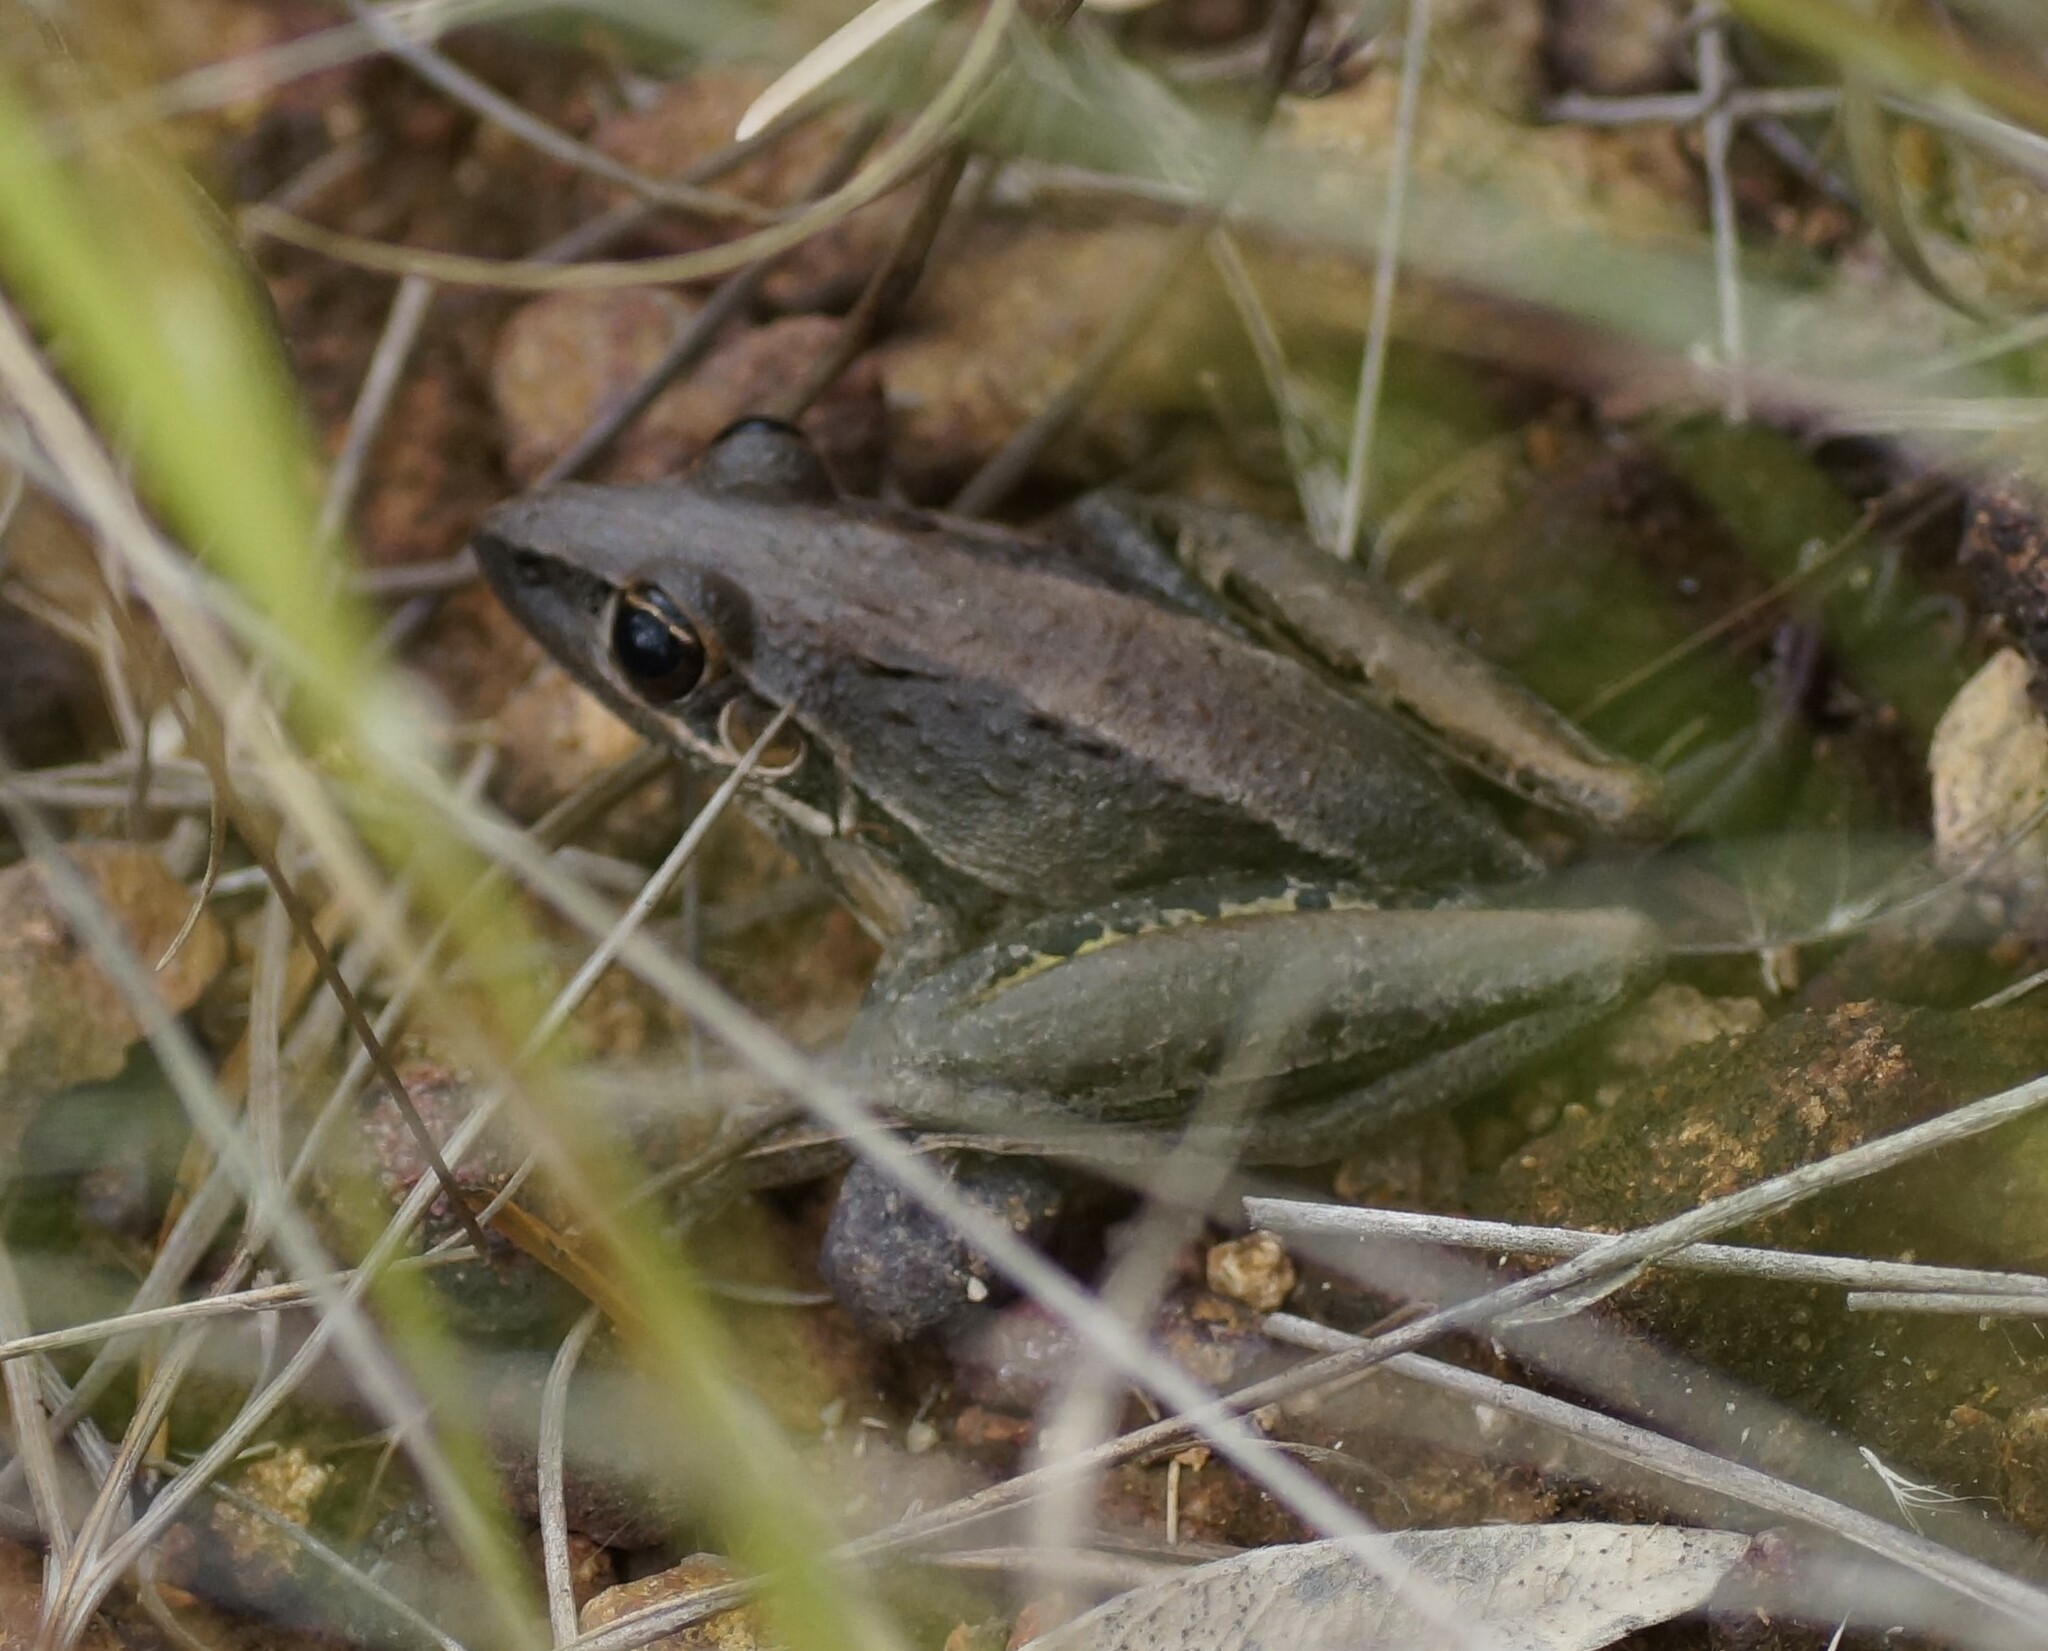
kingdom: Animalia
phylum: Chordata
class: Amphibia
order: Anura
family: Pelodryadidae
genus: Litoria
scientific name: Litoria nasuta
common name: Rocket frog
